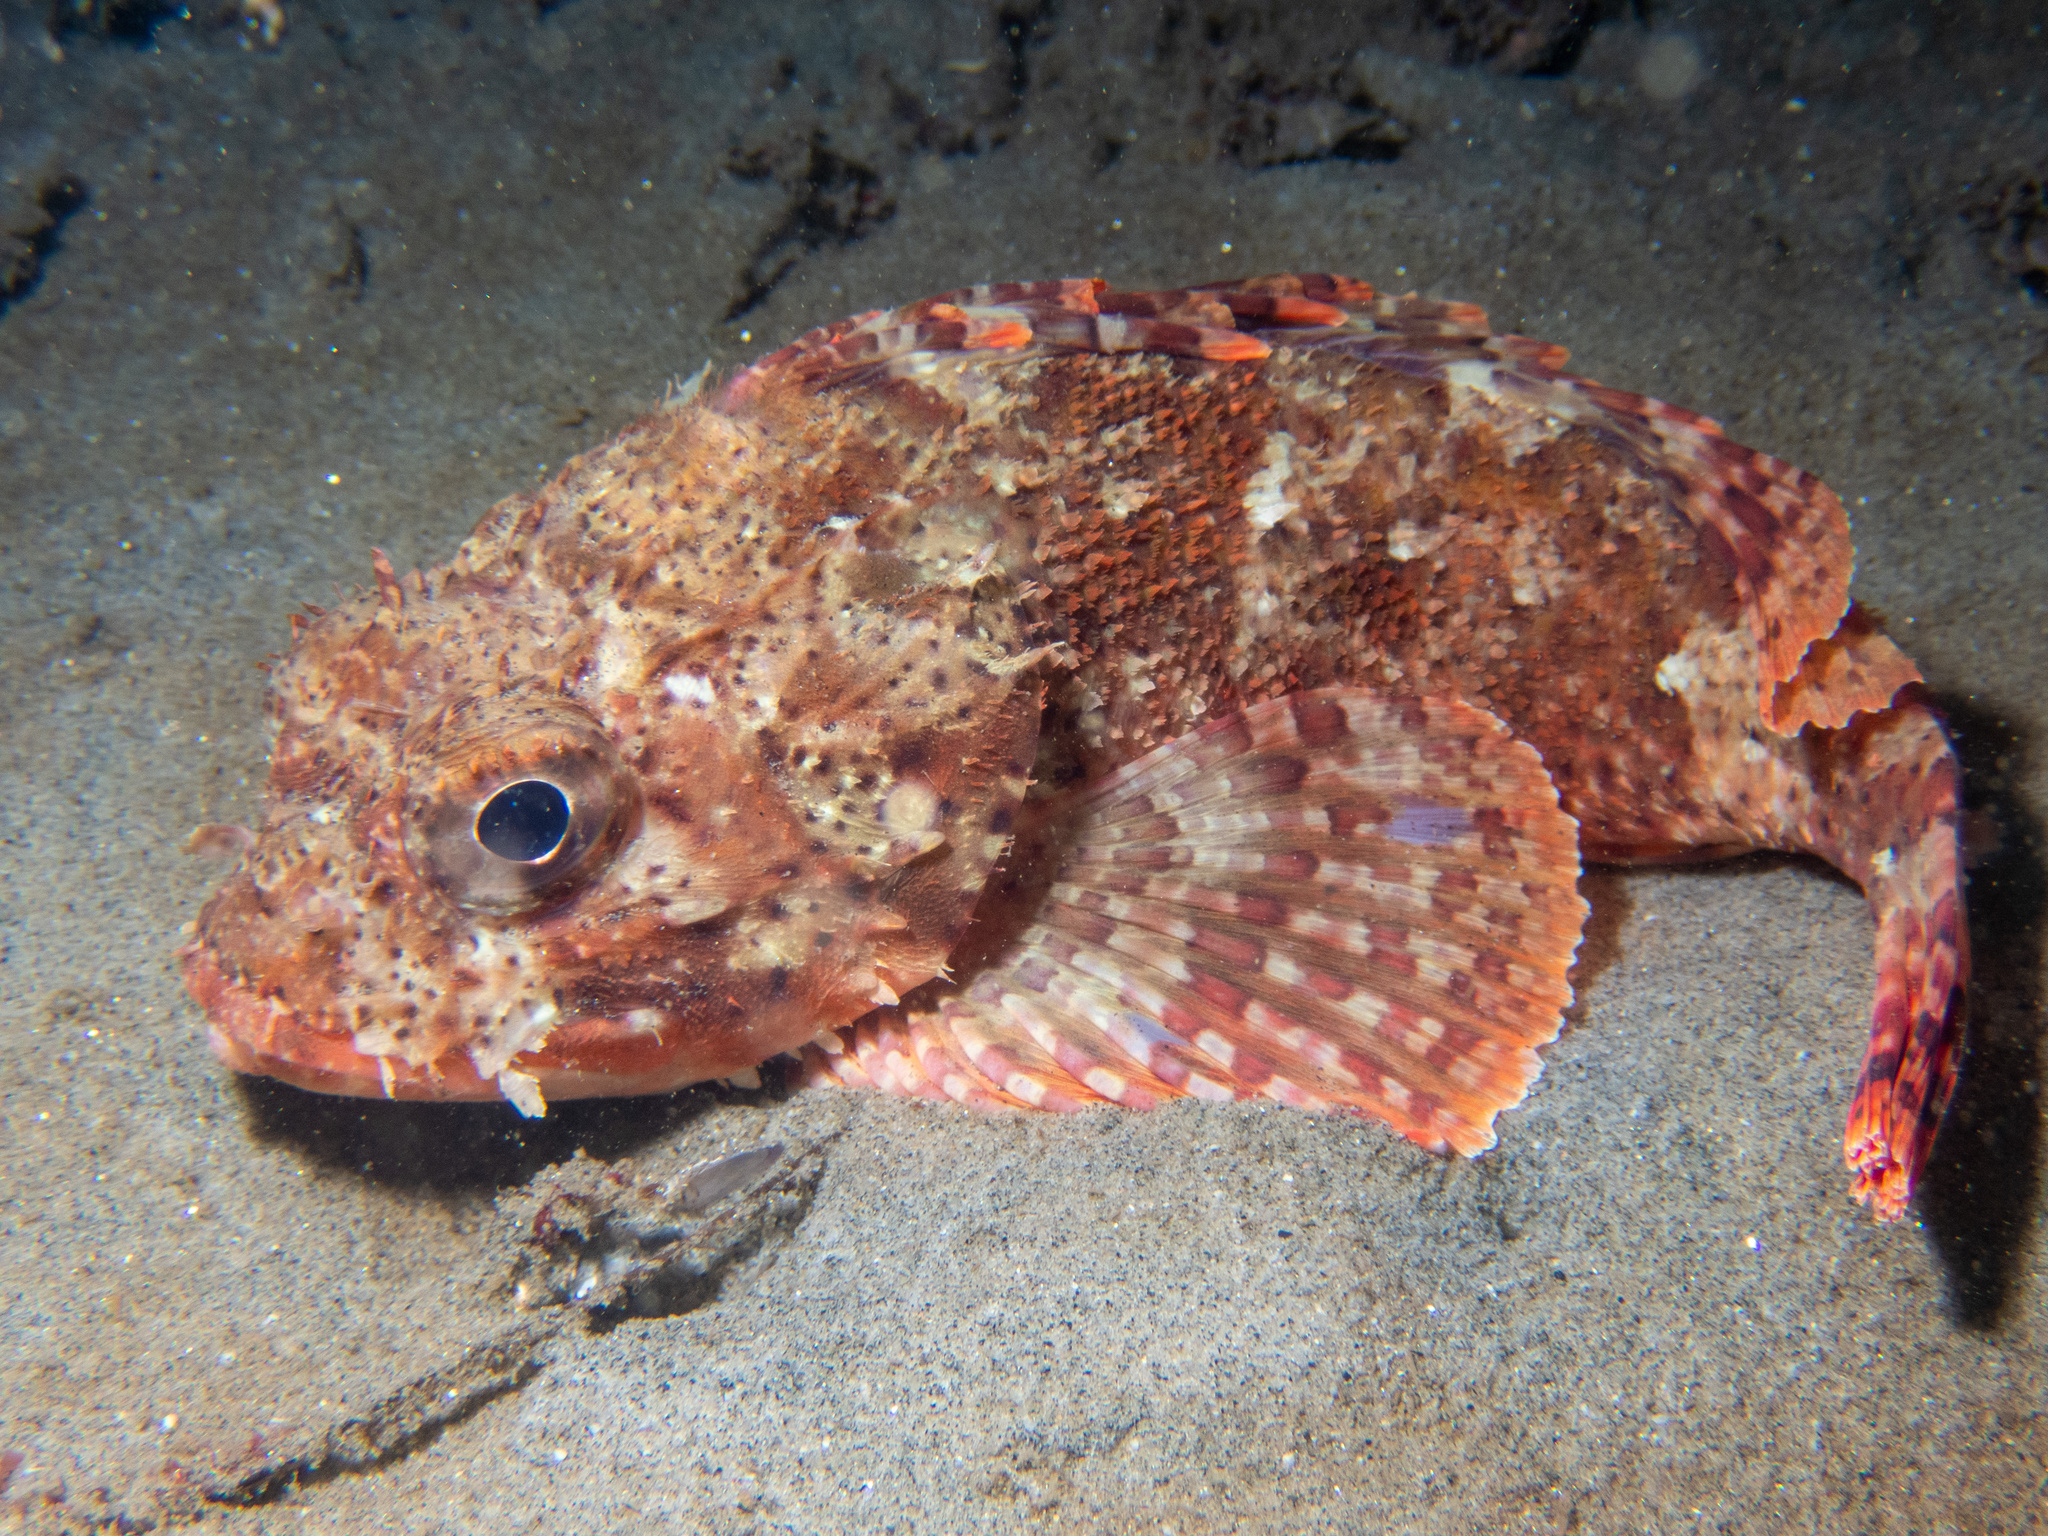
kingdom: Animalia
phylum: Chordata
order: Scorpaeniformes
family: Scorpaenidae
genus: Scorpaena
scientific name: Scorpaena guttata
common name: California scorpionfish
